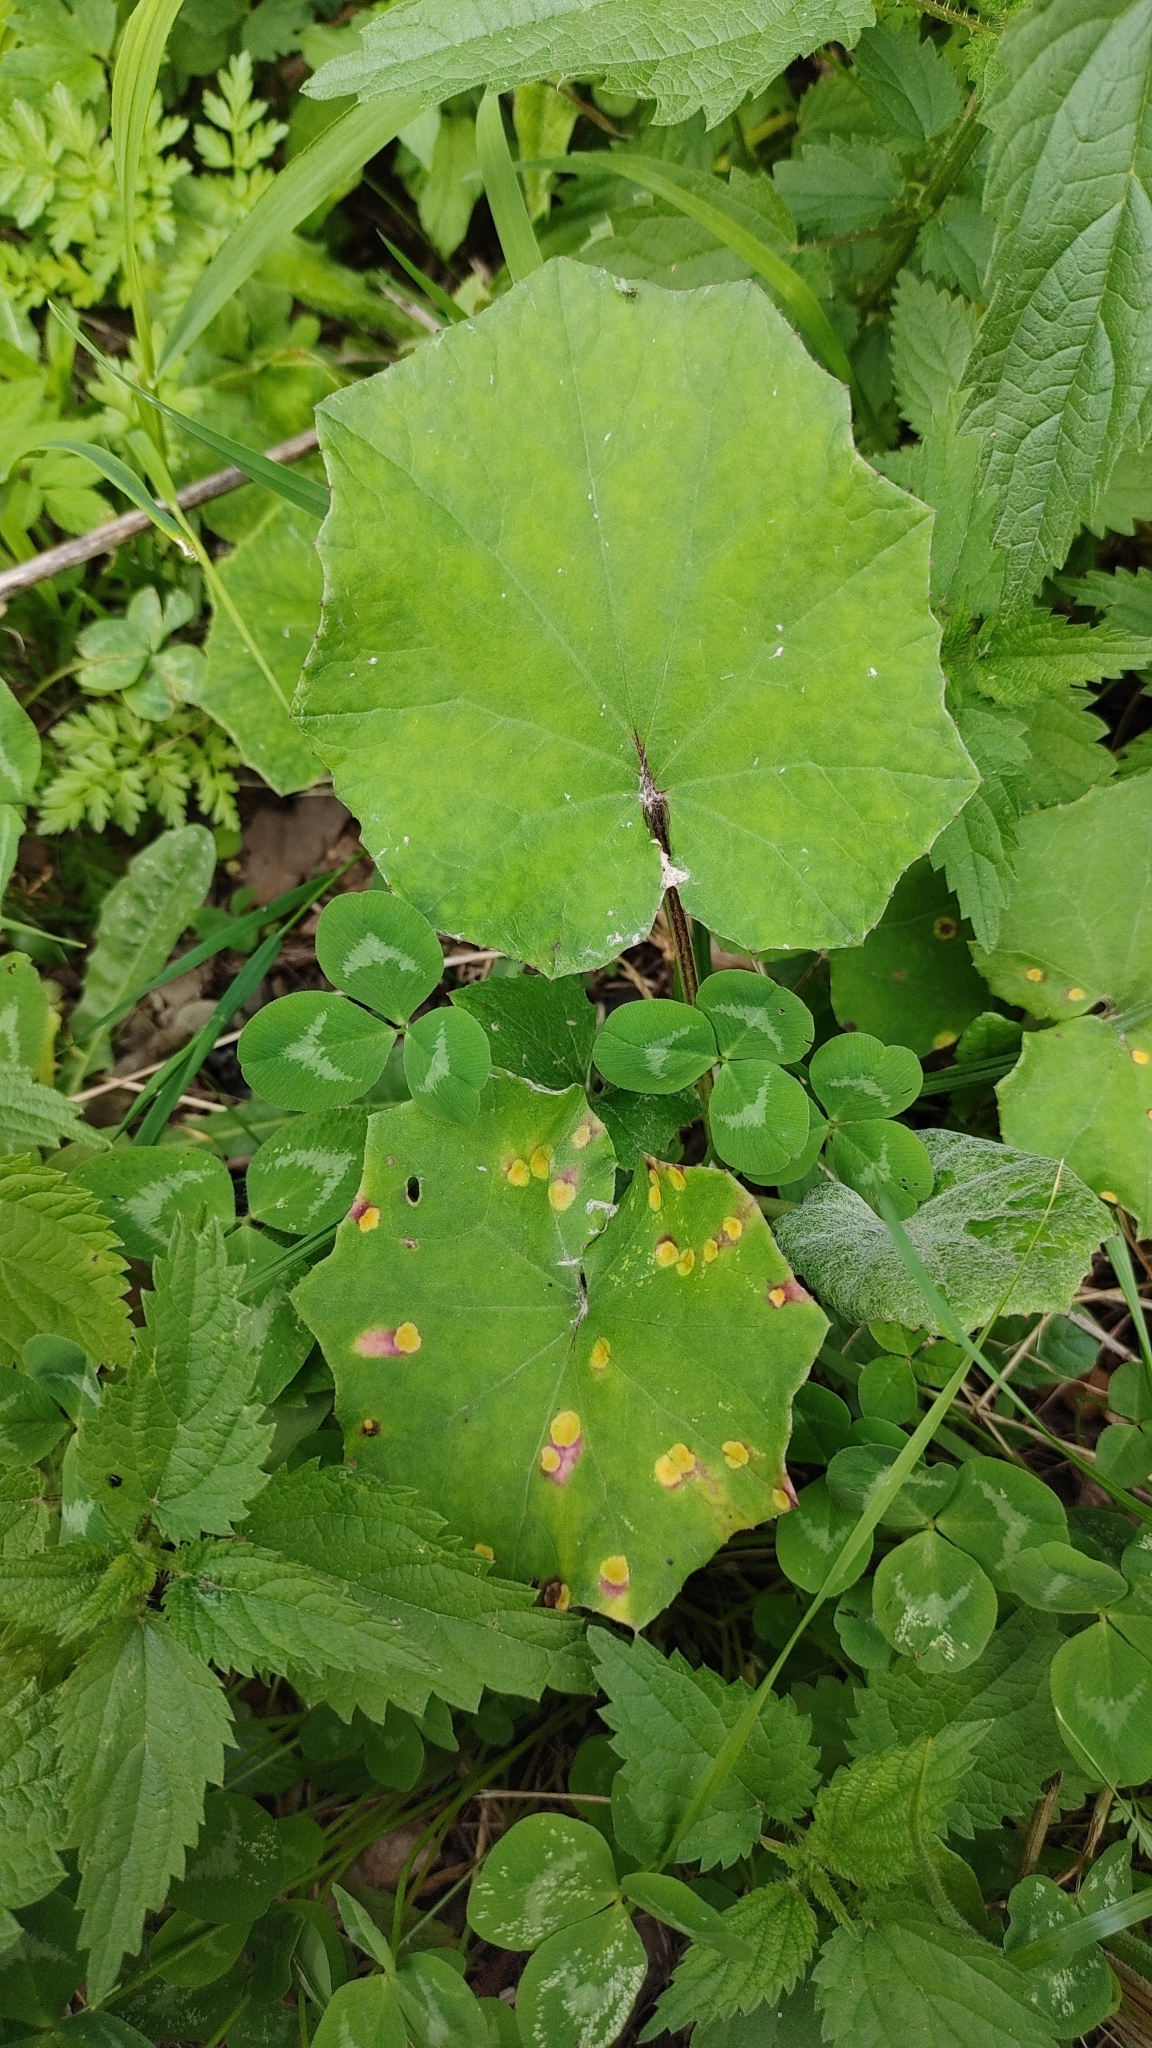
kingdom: Plantae
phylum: Tracheophyta
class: Magnoliopsida
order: Asterales
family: Asteraceae
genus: Tussilago
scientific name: Tussilago farfara
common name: Coltsfoot
